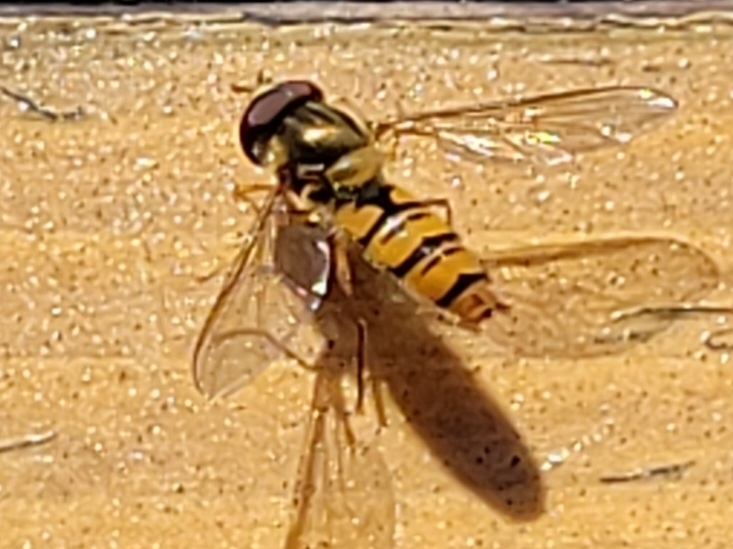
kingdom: Animalia
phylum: Arthropoda
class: Insecta
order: Diptera
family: Syrphidae
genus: Episyrphus
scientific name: Episyrphus balteatus
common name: Marmalade hoverfly
